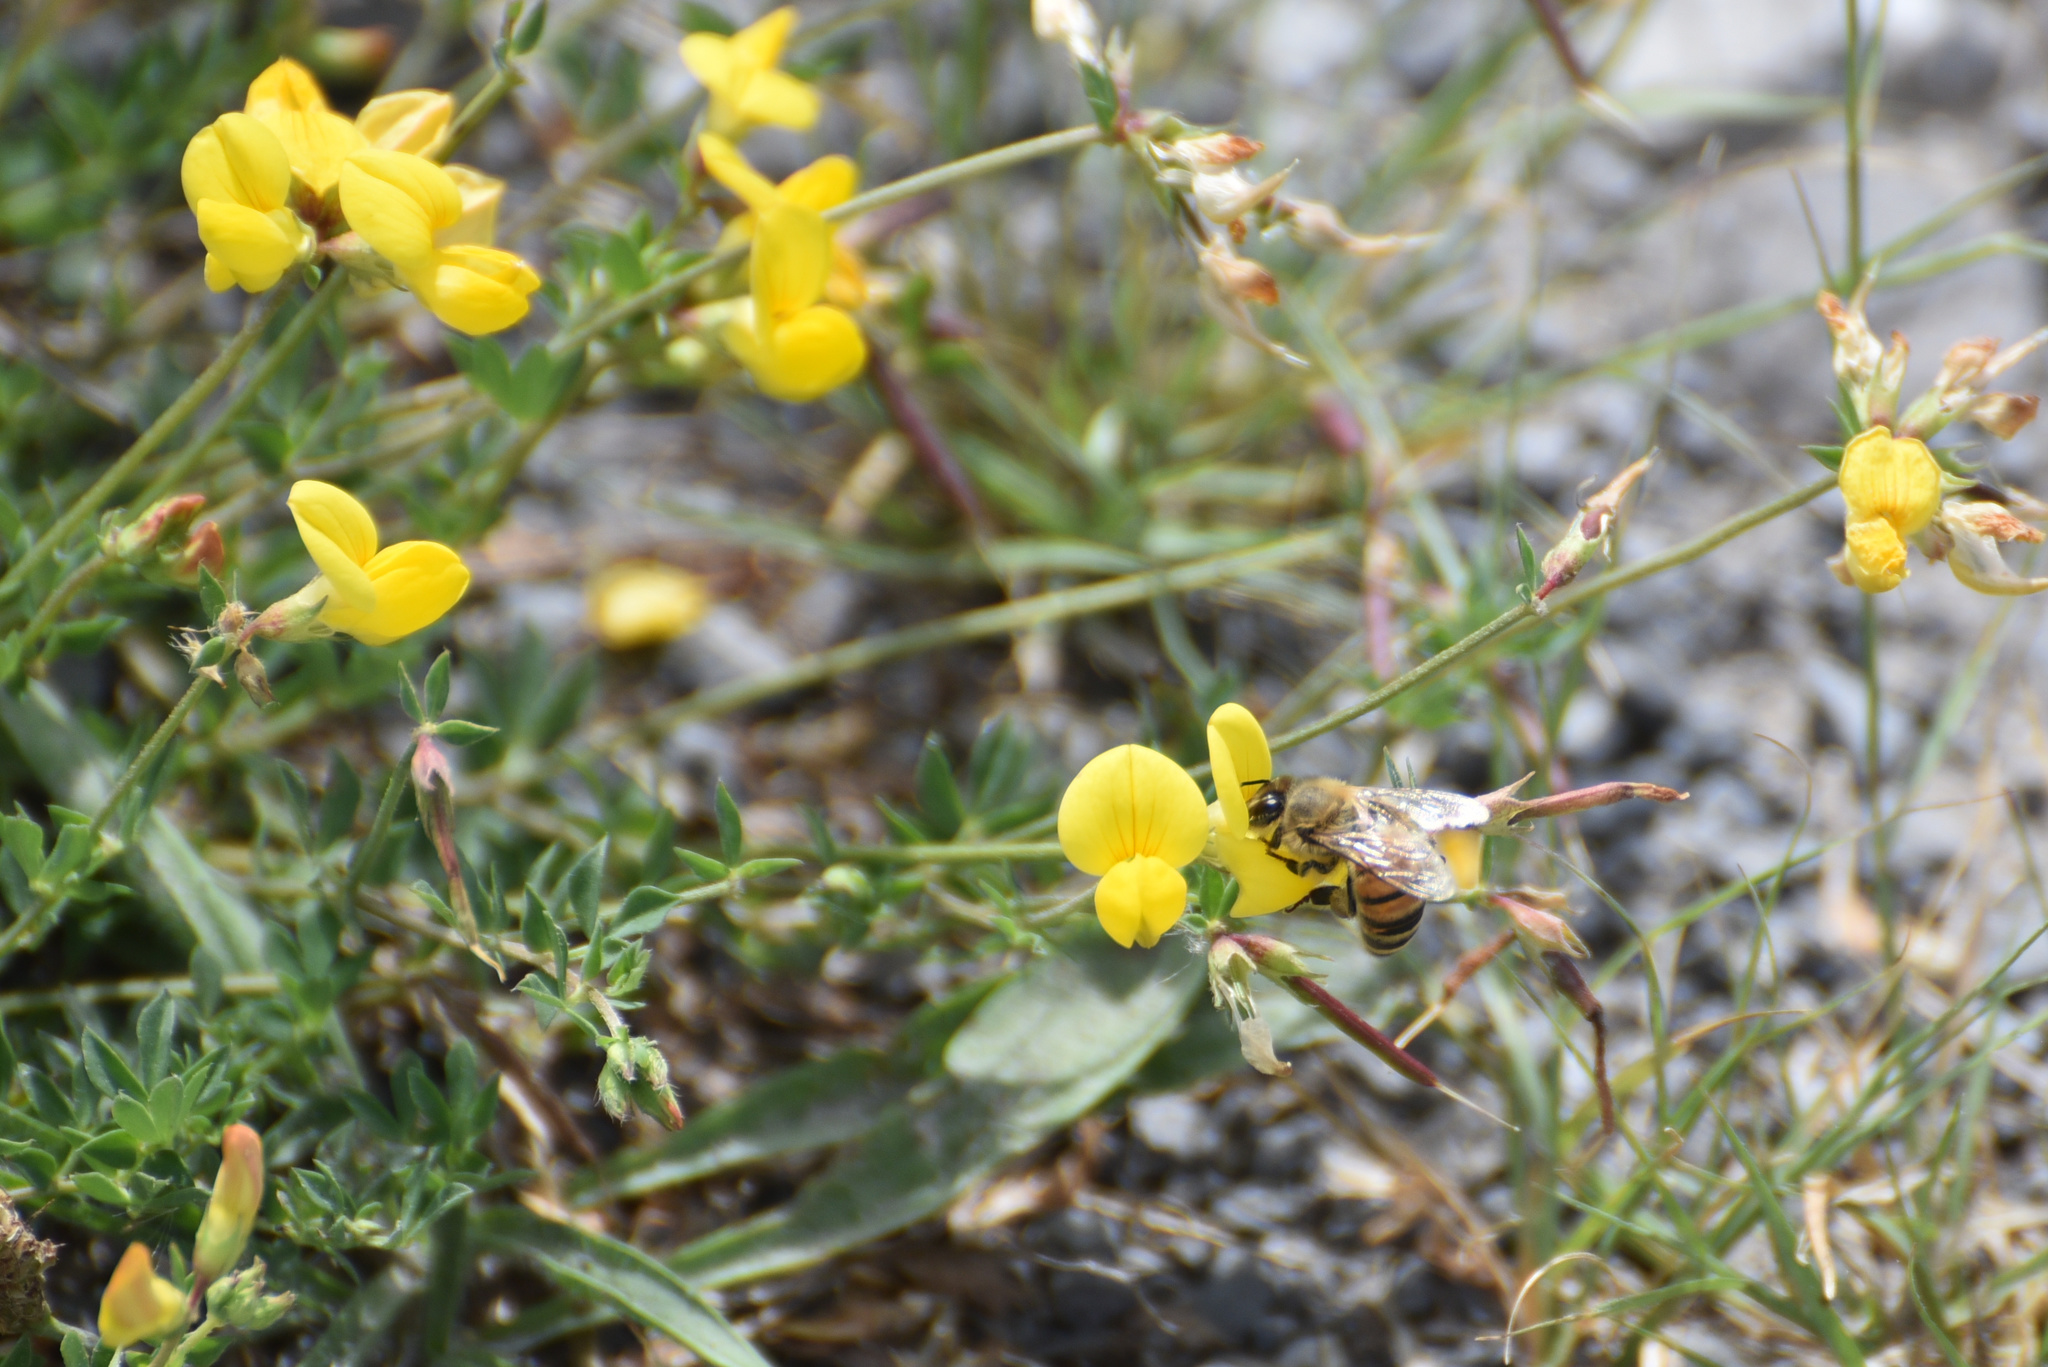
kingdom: Animalia
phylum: Arthropoda
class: Insecta
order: Hymenoptera
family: Apidae
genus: Apis
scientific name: Apis mellifera
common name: Honey bee
